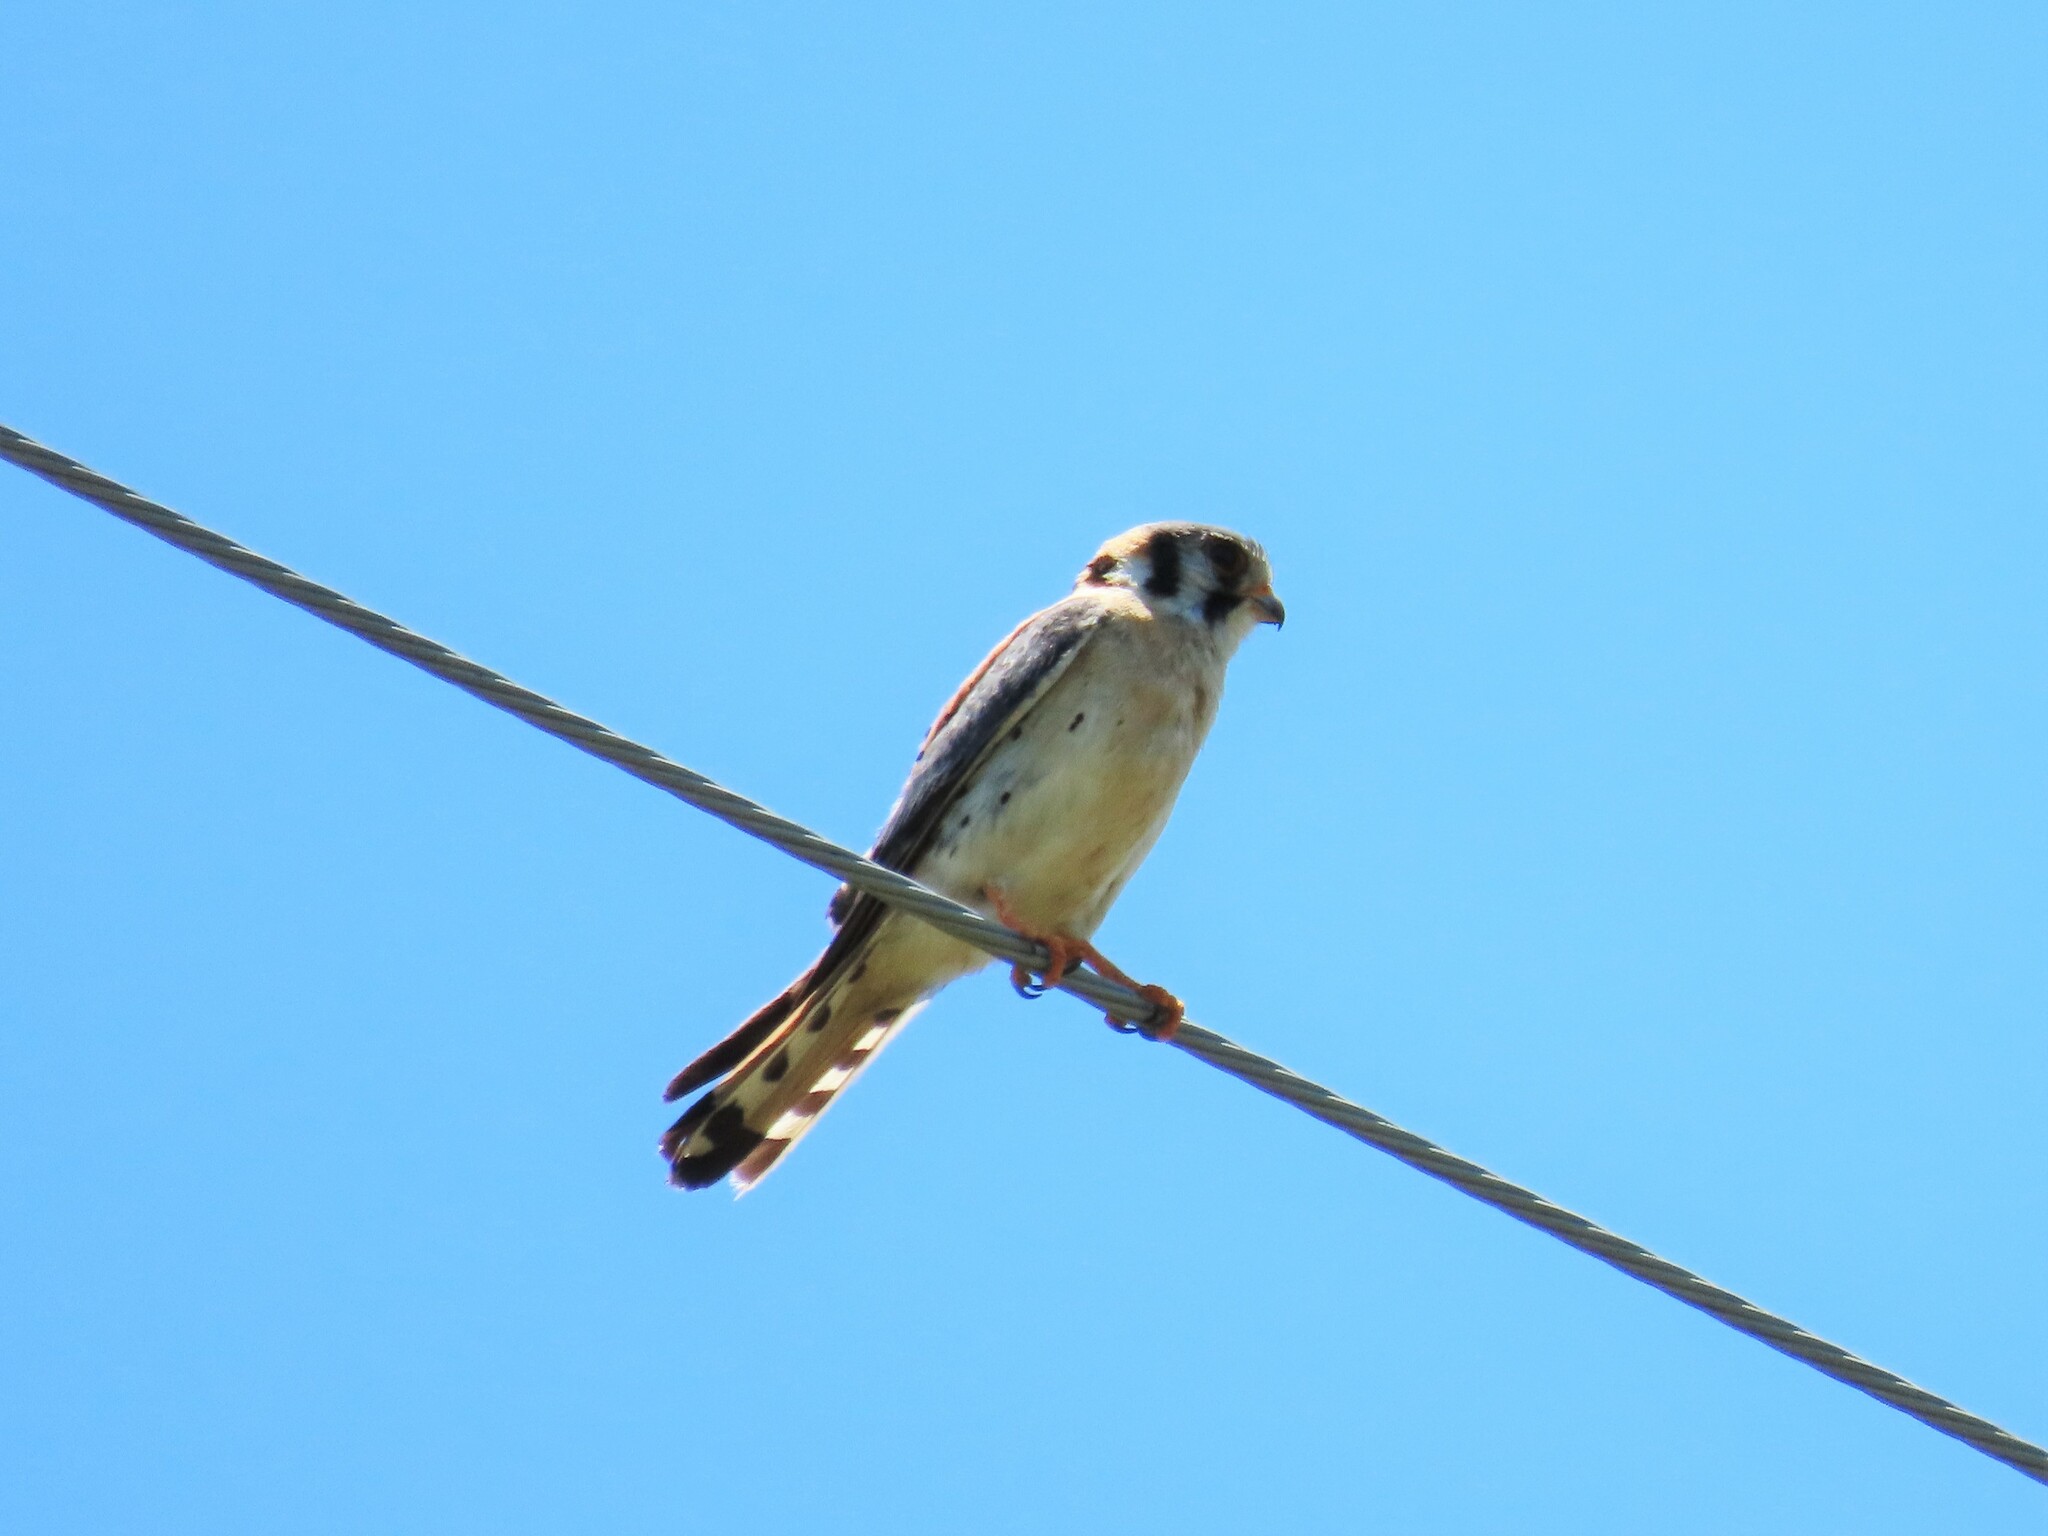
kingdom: Animalia
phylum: Chordata
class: Aves
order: Falconiformes
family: Falconidae
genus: Falco
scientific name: Falco sparverius
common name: American kestrel
